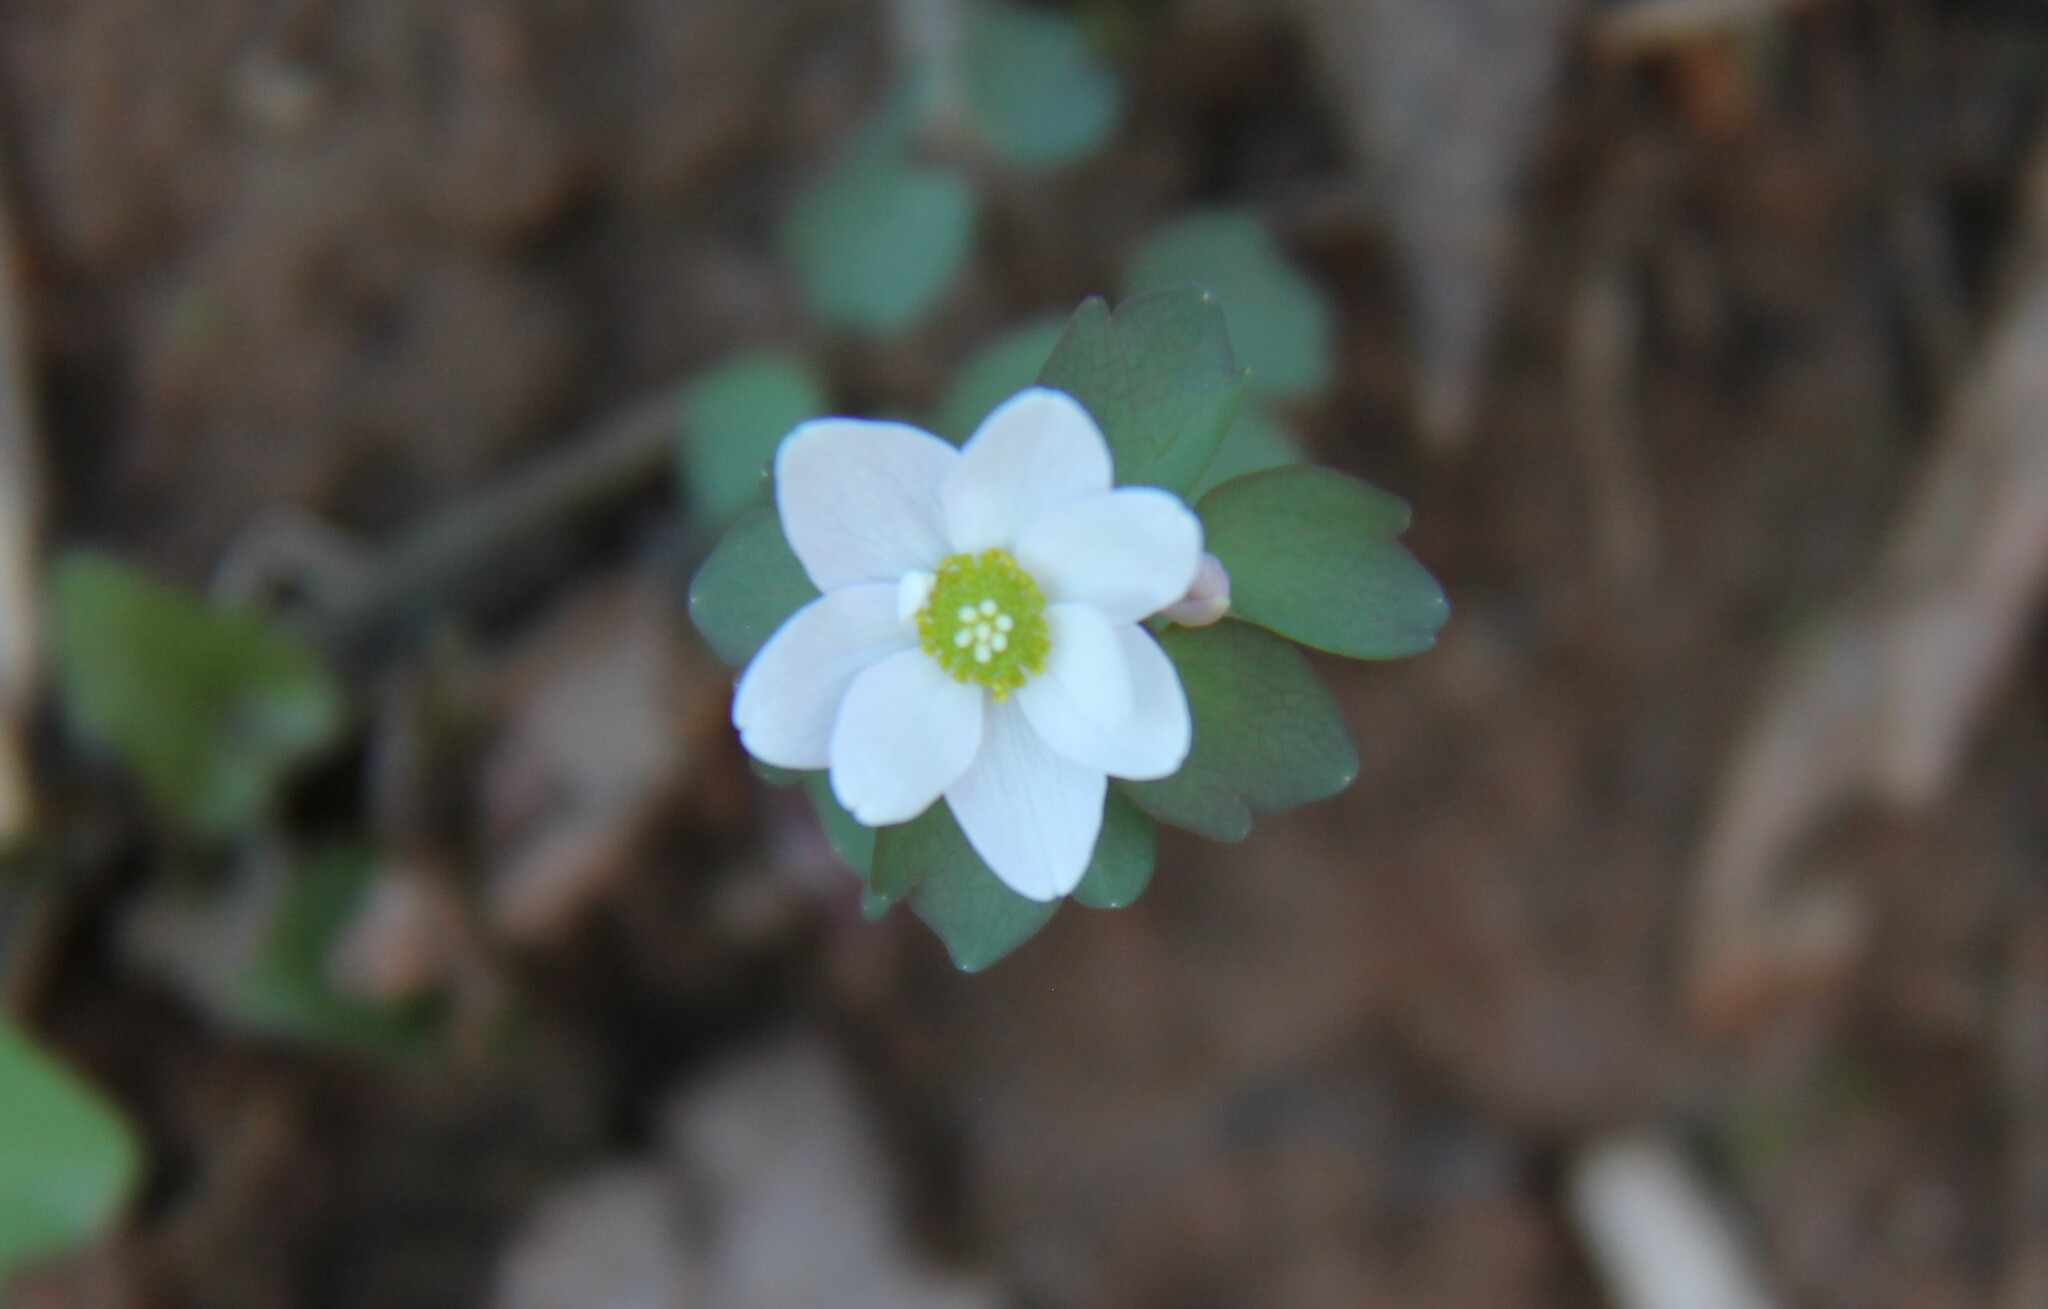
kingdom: Plantae
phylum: Tracheophyta
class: Magnoliopsida
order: Ranunculales
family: Ranunculaceae
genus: Thalictrum
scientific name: Thalictrum thalictroides
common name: Rue-anemone
